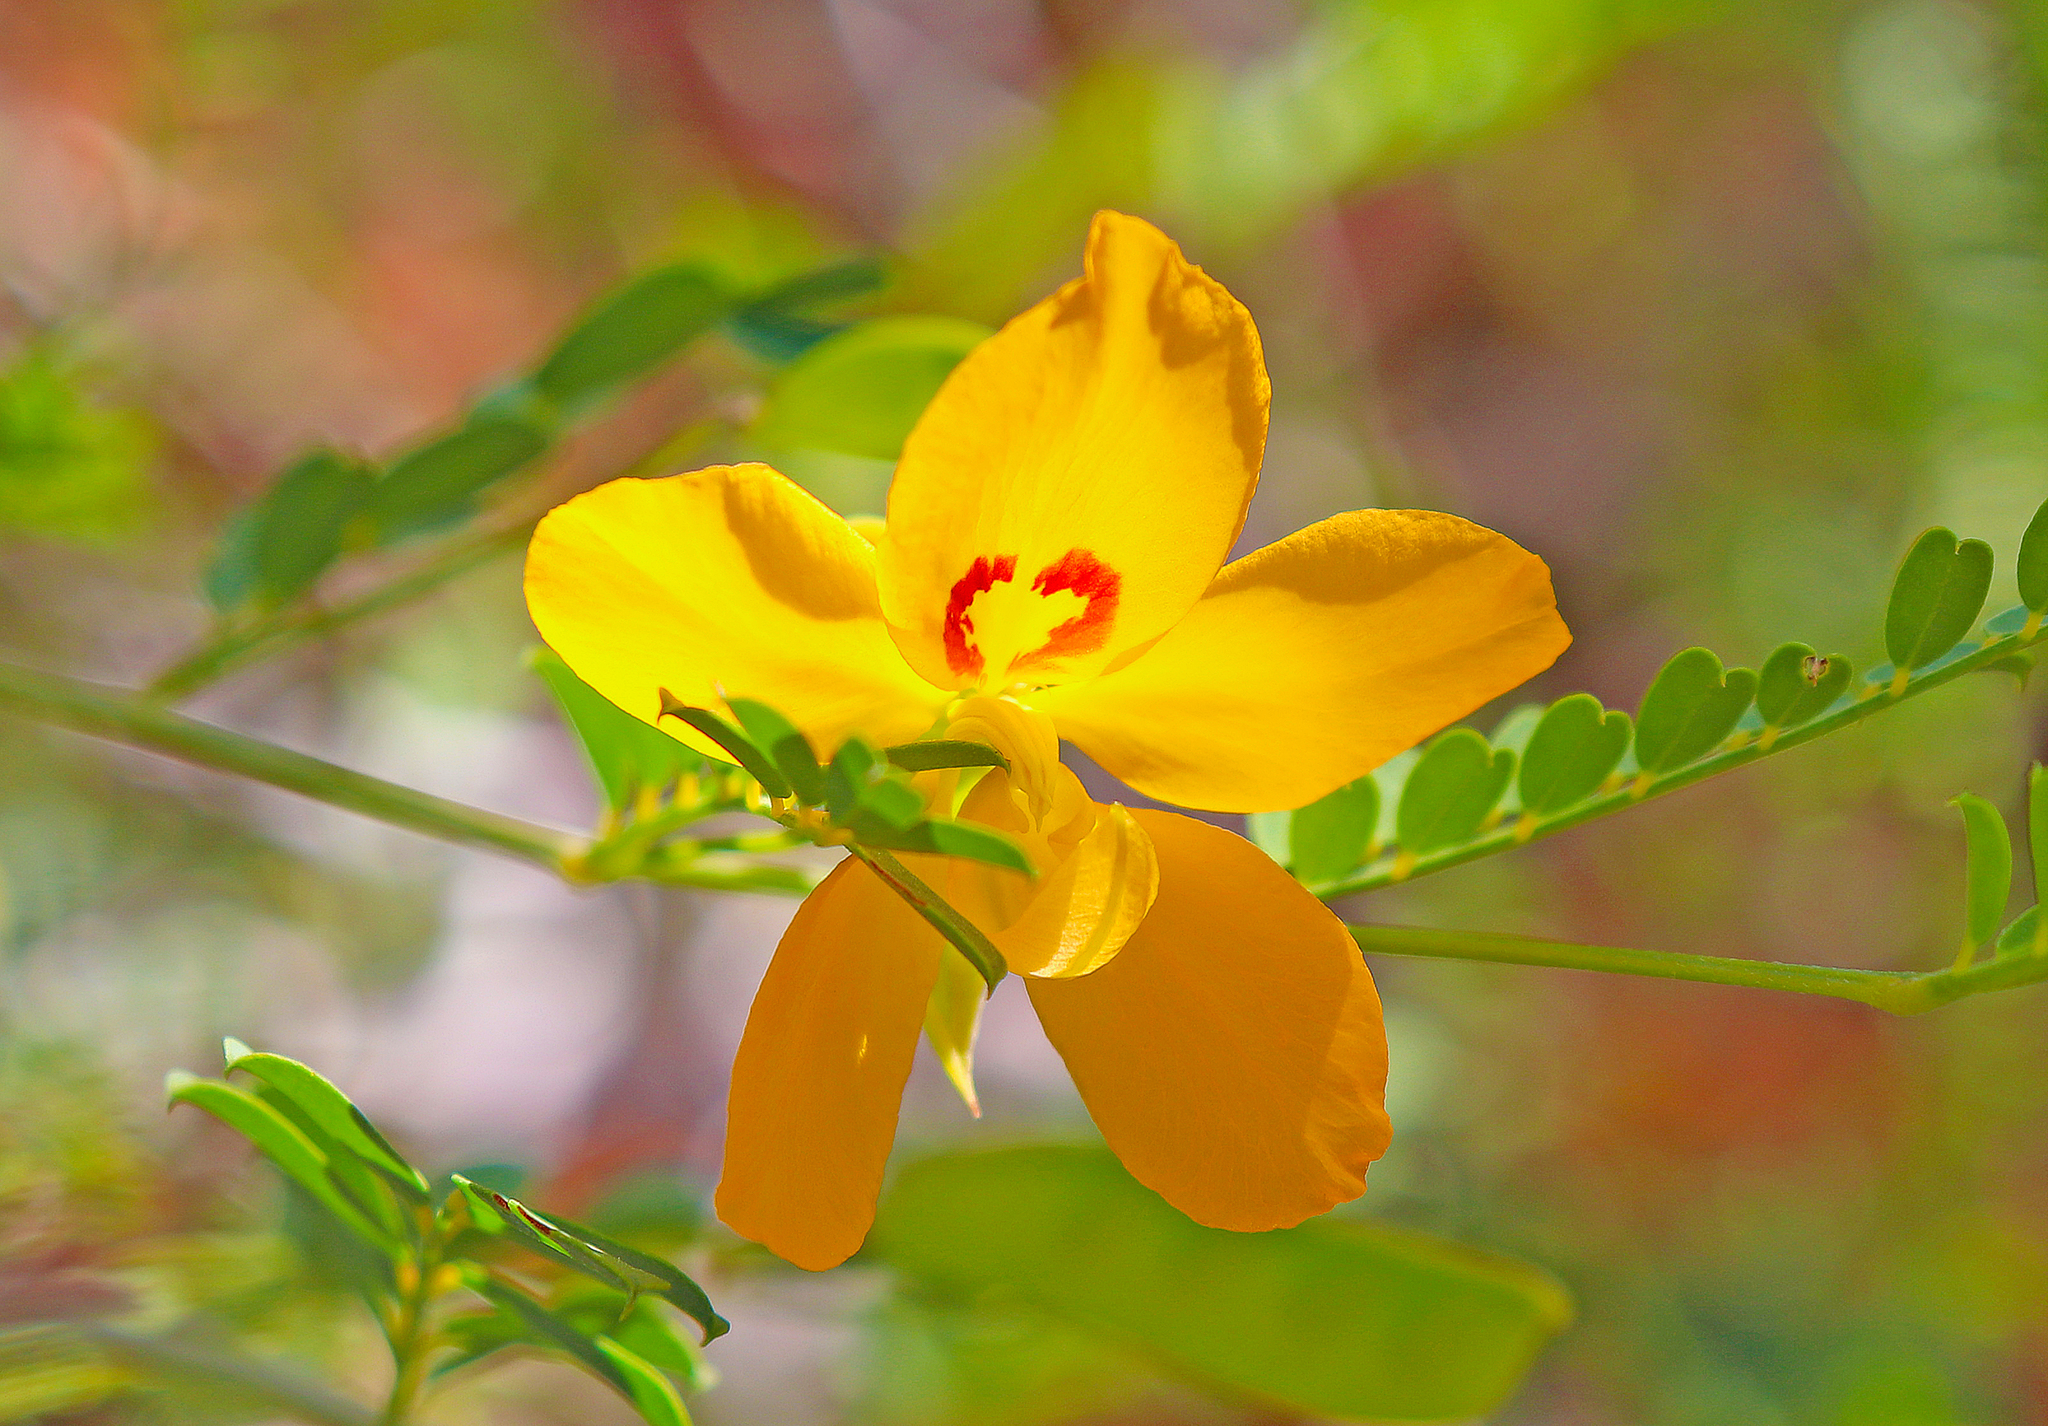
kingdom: Plantae
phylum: Tracheophyta
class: Magnoliopsida
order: Fabales
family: Fabaceae
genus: Petalostylis
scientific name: Petalostylis cassioides
